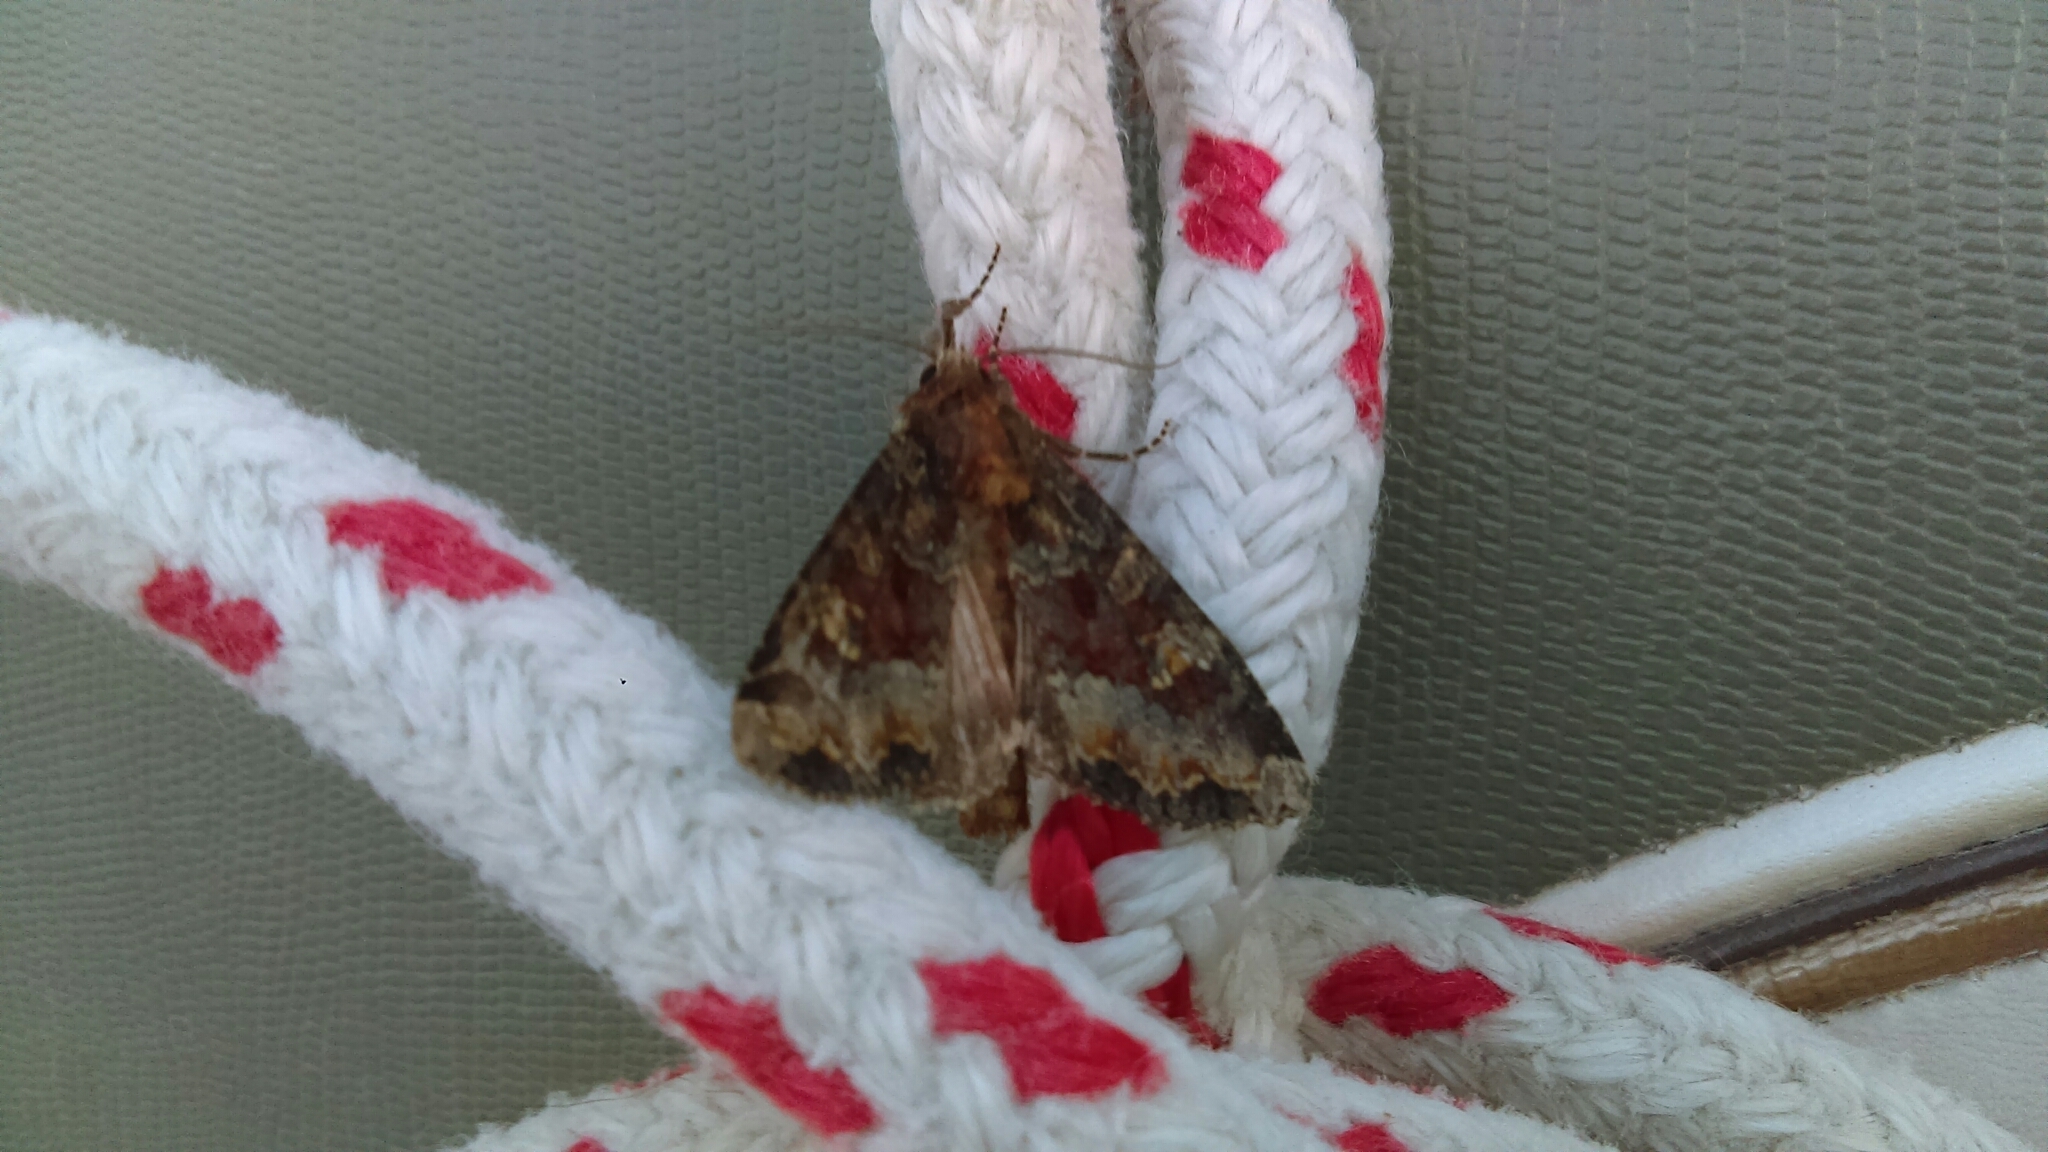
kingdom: Animalia
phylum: Arthropoda
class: Insecta
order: Lepidoptera
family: Noctuidae
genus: Apamea
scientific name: Apamea amputatrix
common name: Yellow-headed cutworm moth
